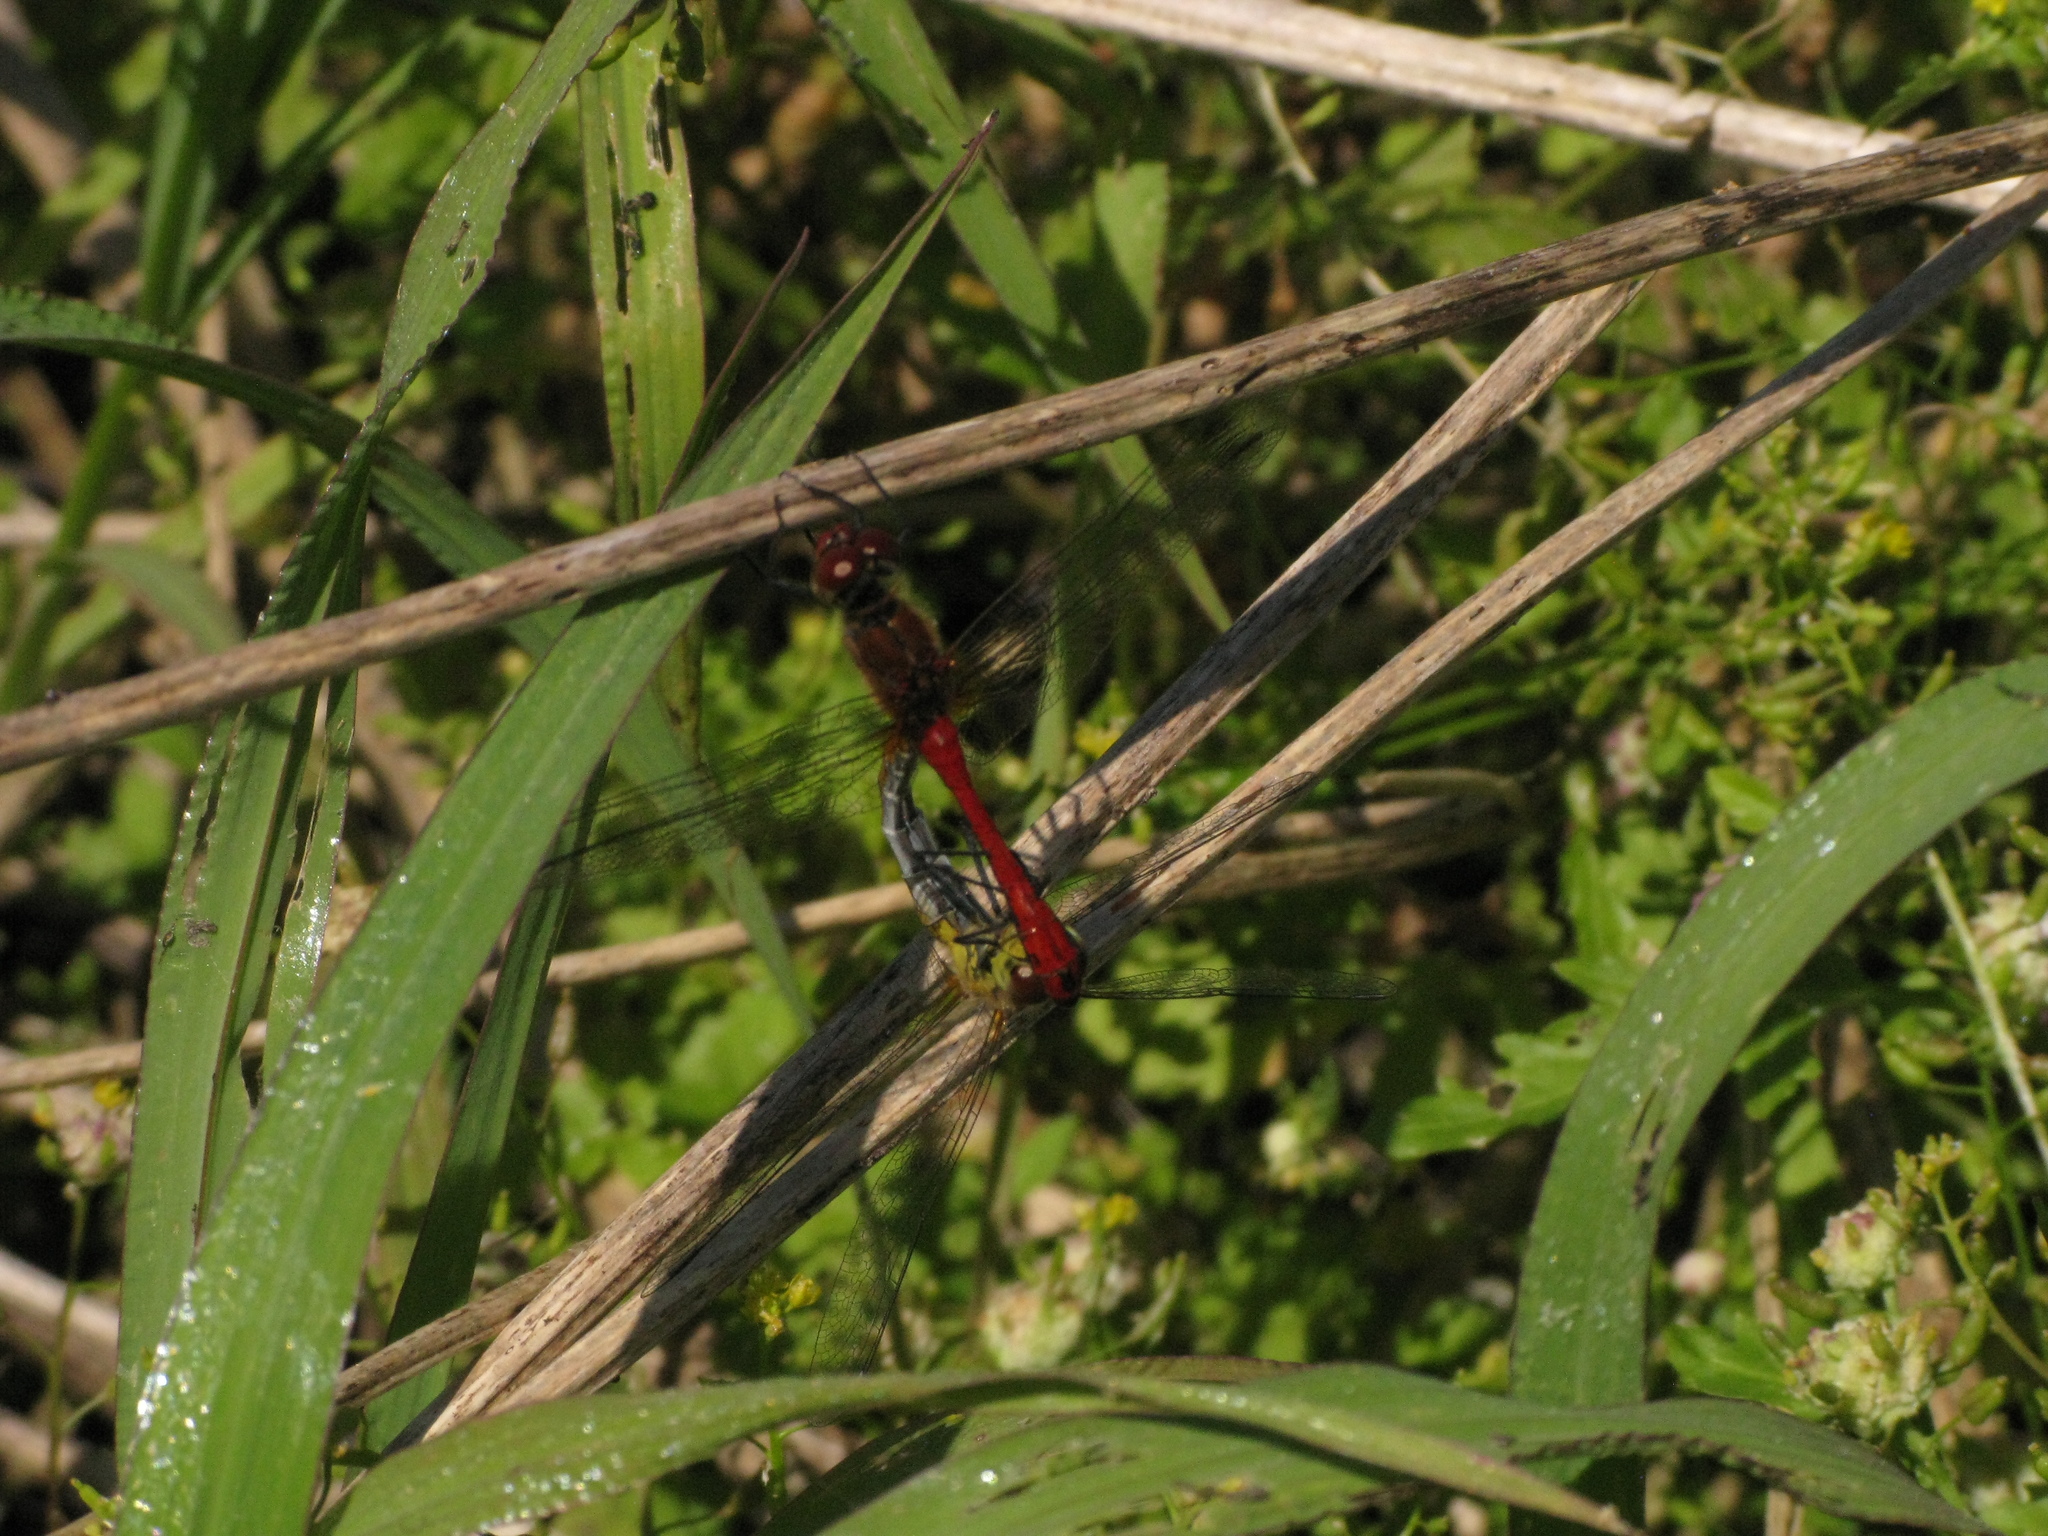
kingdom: Animalia
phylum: Arthropoda
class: Insecta
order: Odonata
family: Libellulidae
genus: Sympetrum
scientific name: Sympetrum sanguineum
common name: Ruddy darter
